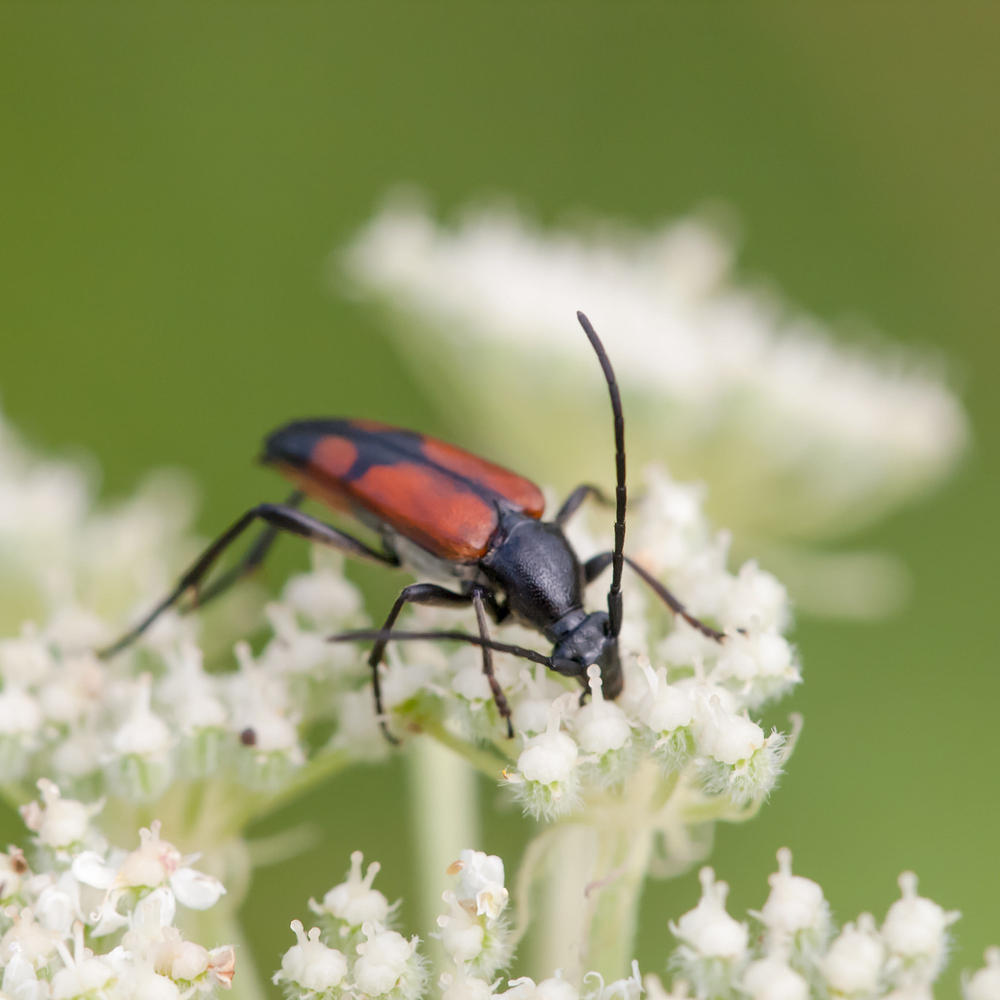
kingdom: Animalia
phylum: Arthropoda
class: Insecta
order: Coleoptera
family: Cerambycidae
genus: Stenurella
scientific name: Stenurella bifasciata
